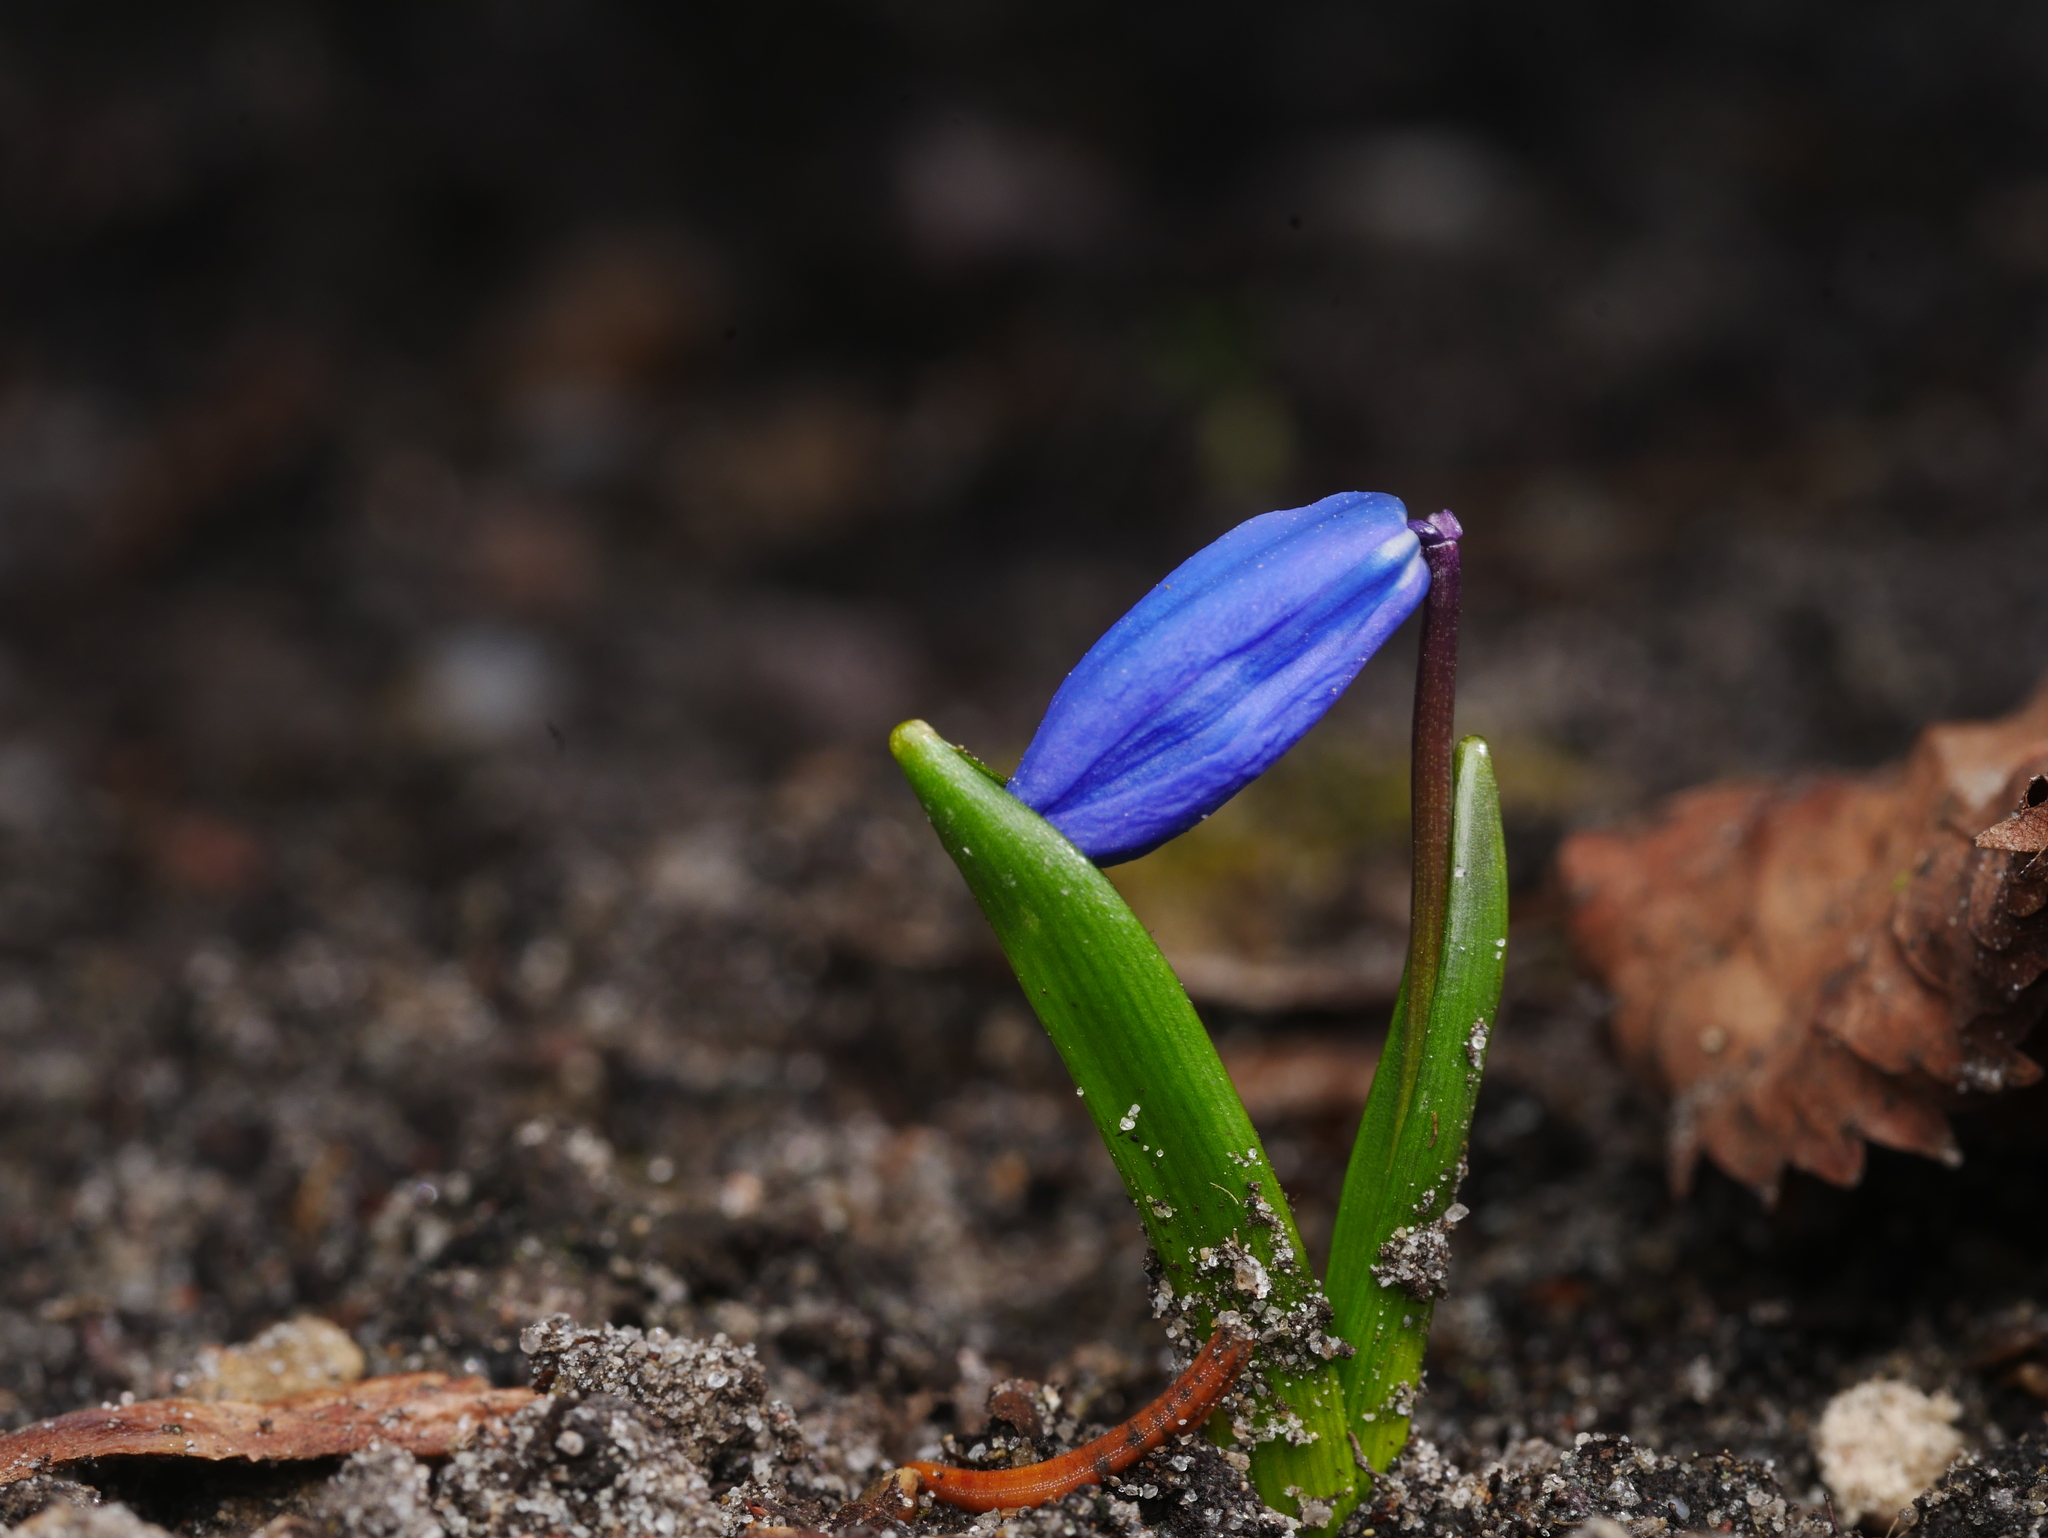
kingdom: Plantae
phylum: Tracheophyta
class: Liliopsida
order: Asparagales
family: Asparagaceae
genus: Scilla
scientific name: Scilla siberica
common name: Siberian squill
